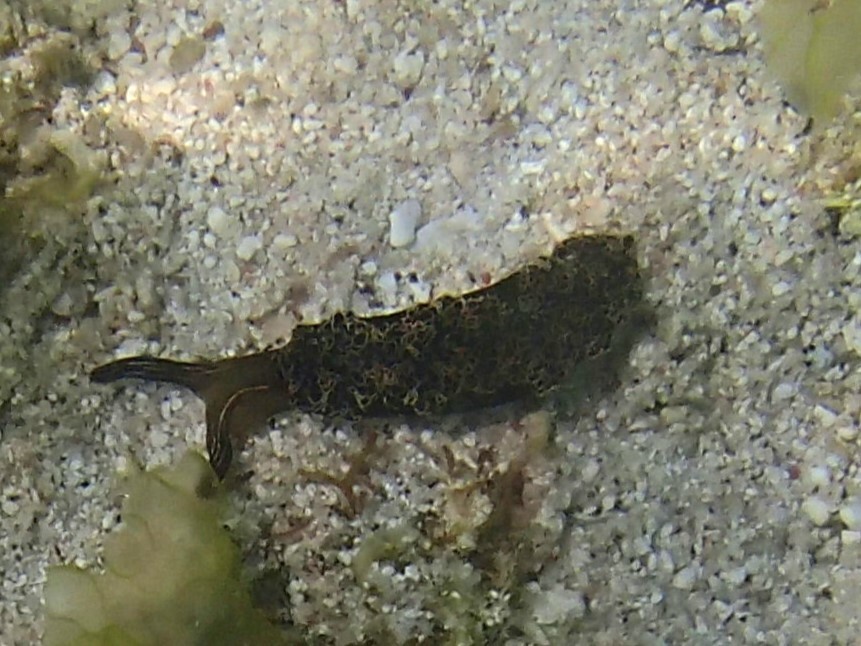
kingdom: Animalia
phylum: Mollusca
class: Gastropoda
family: Plakobranchidae
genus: Elysia
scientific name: Elysia diomedea
